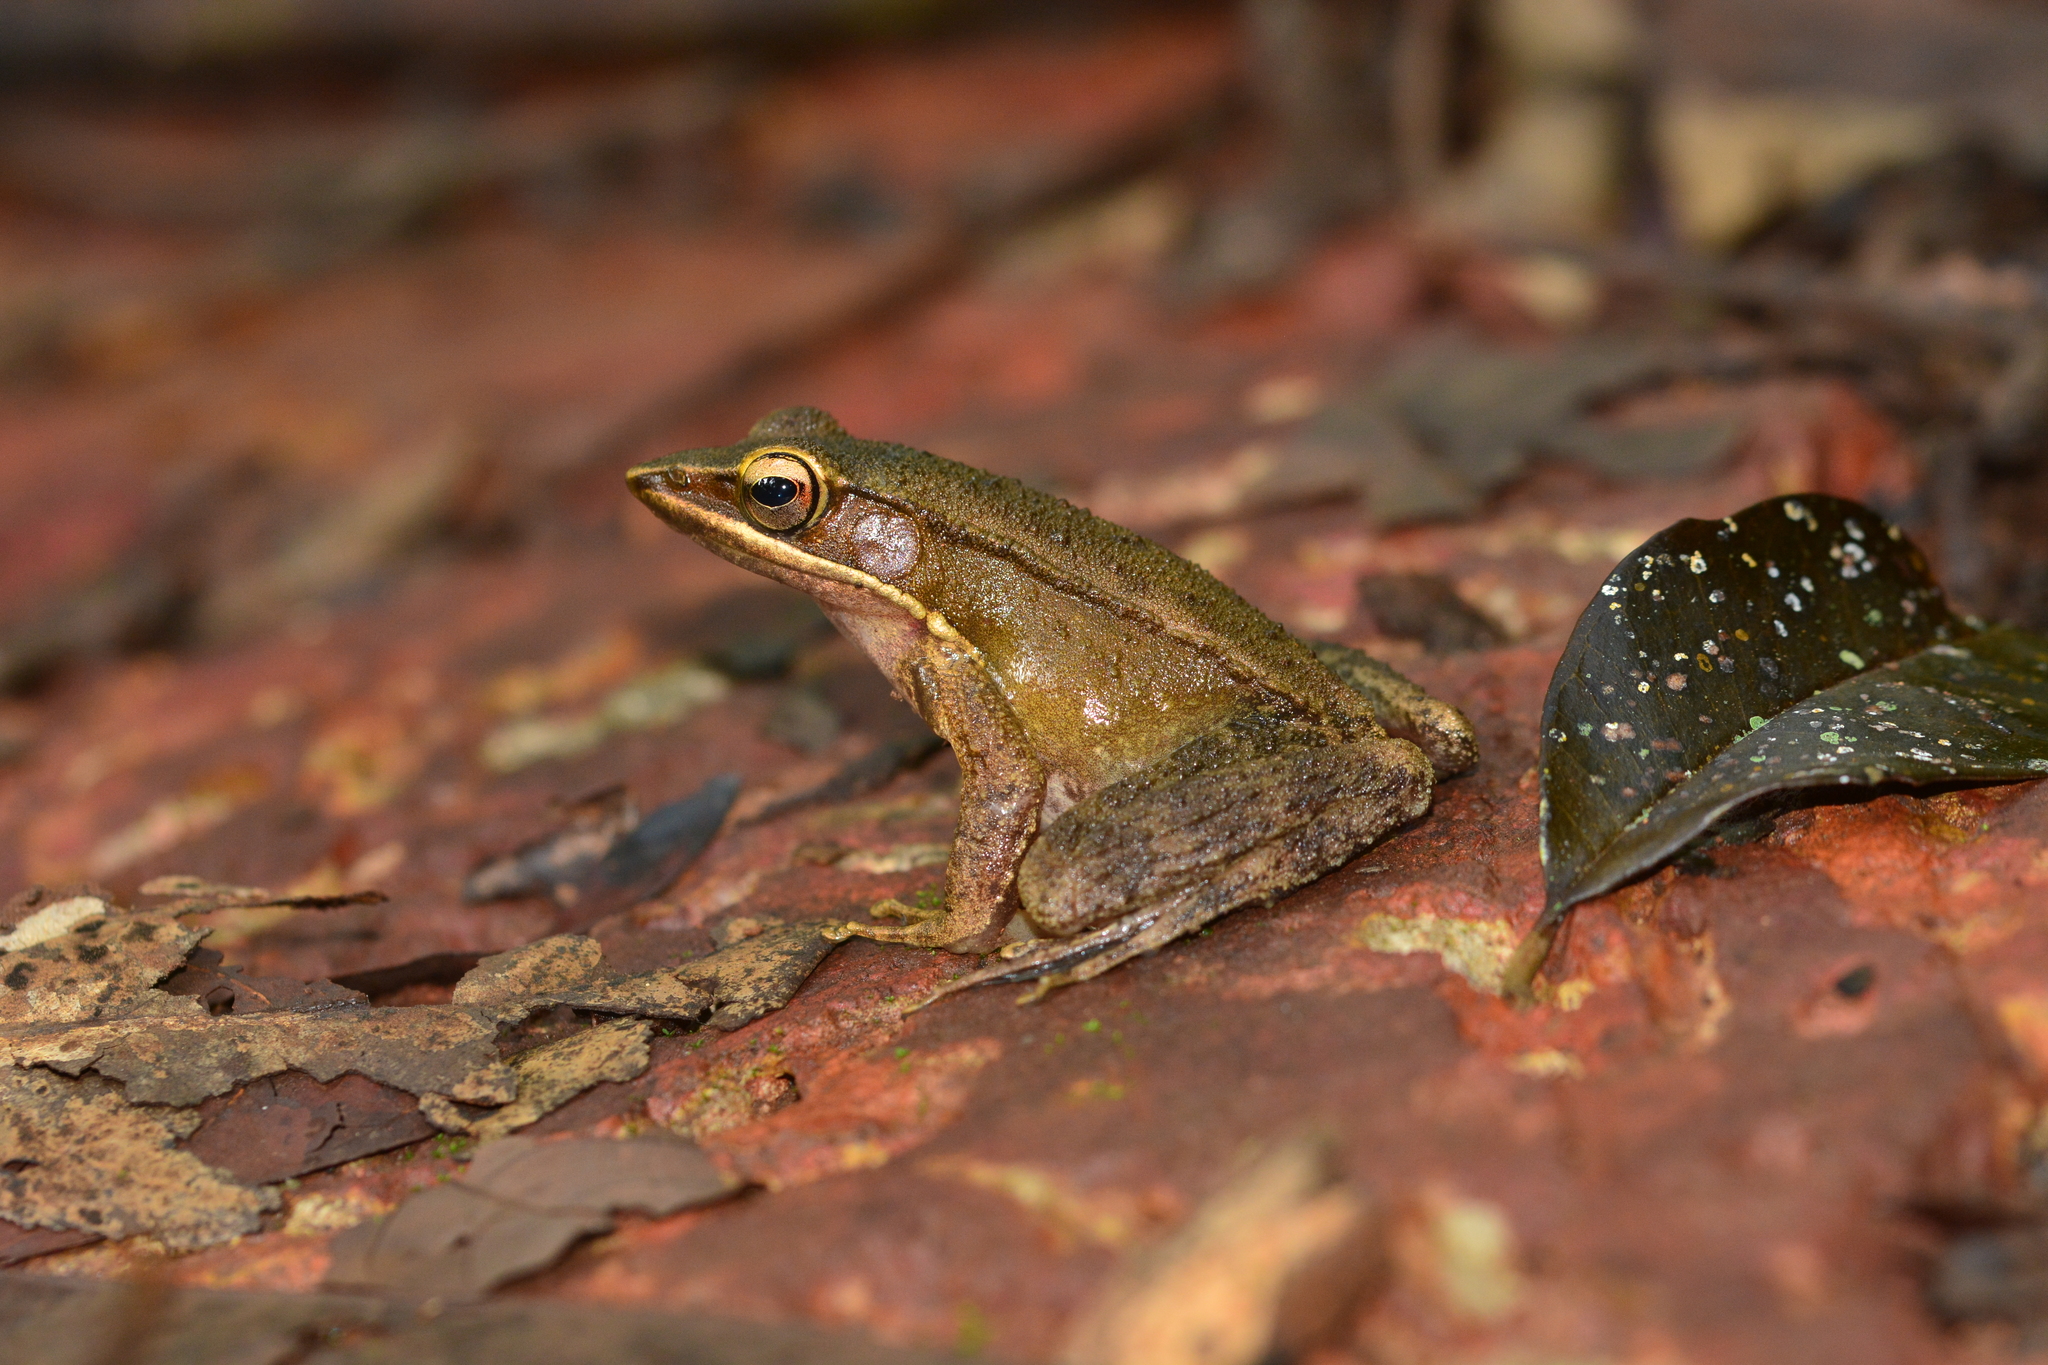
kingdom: Animalia
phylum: Chordata
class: Amphibia
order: Anura
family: Ranidae
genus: Indosylvirana
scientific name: Indosylvirana caesari
